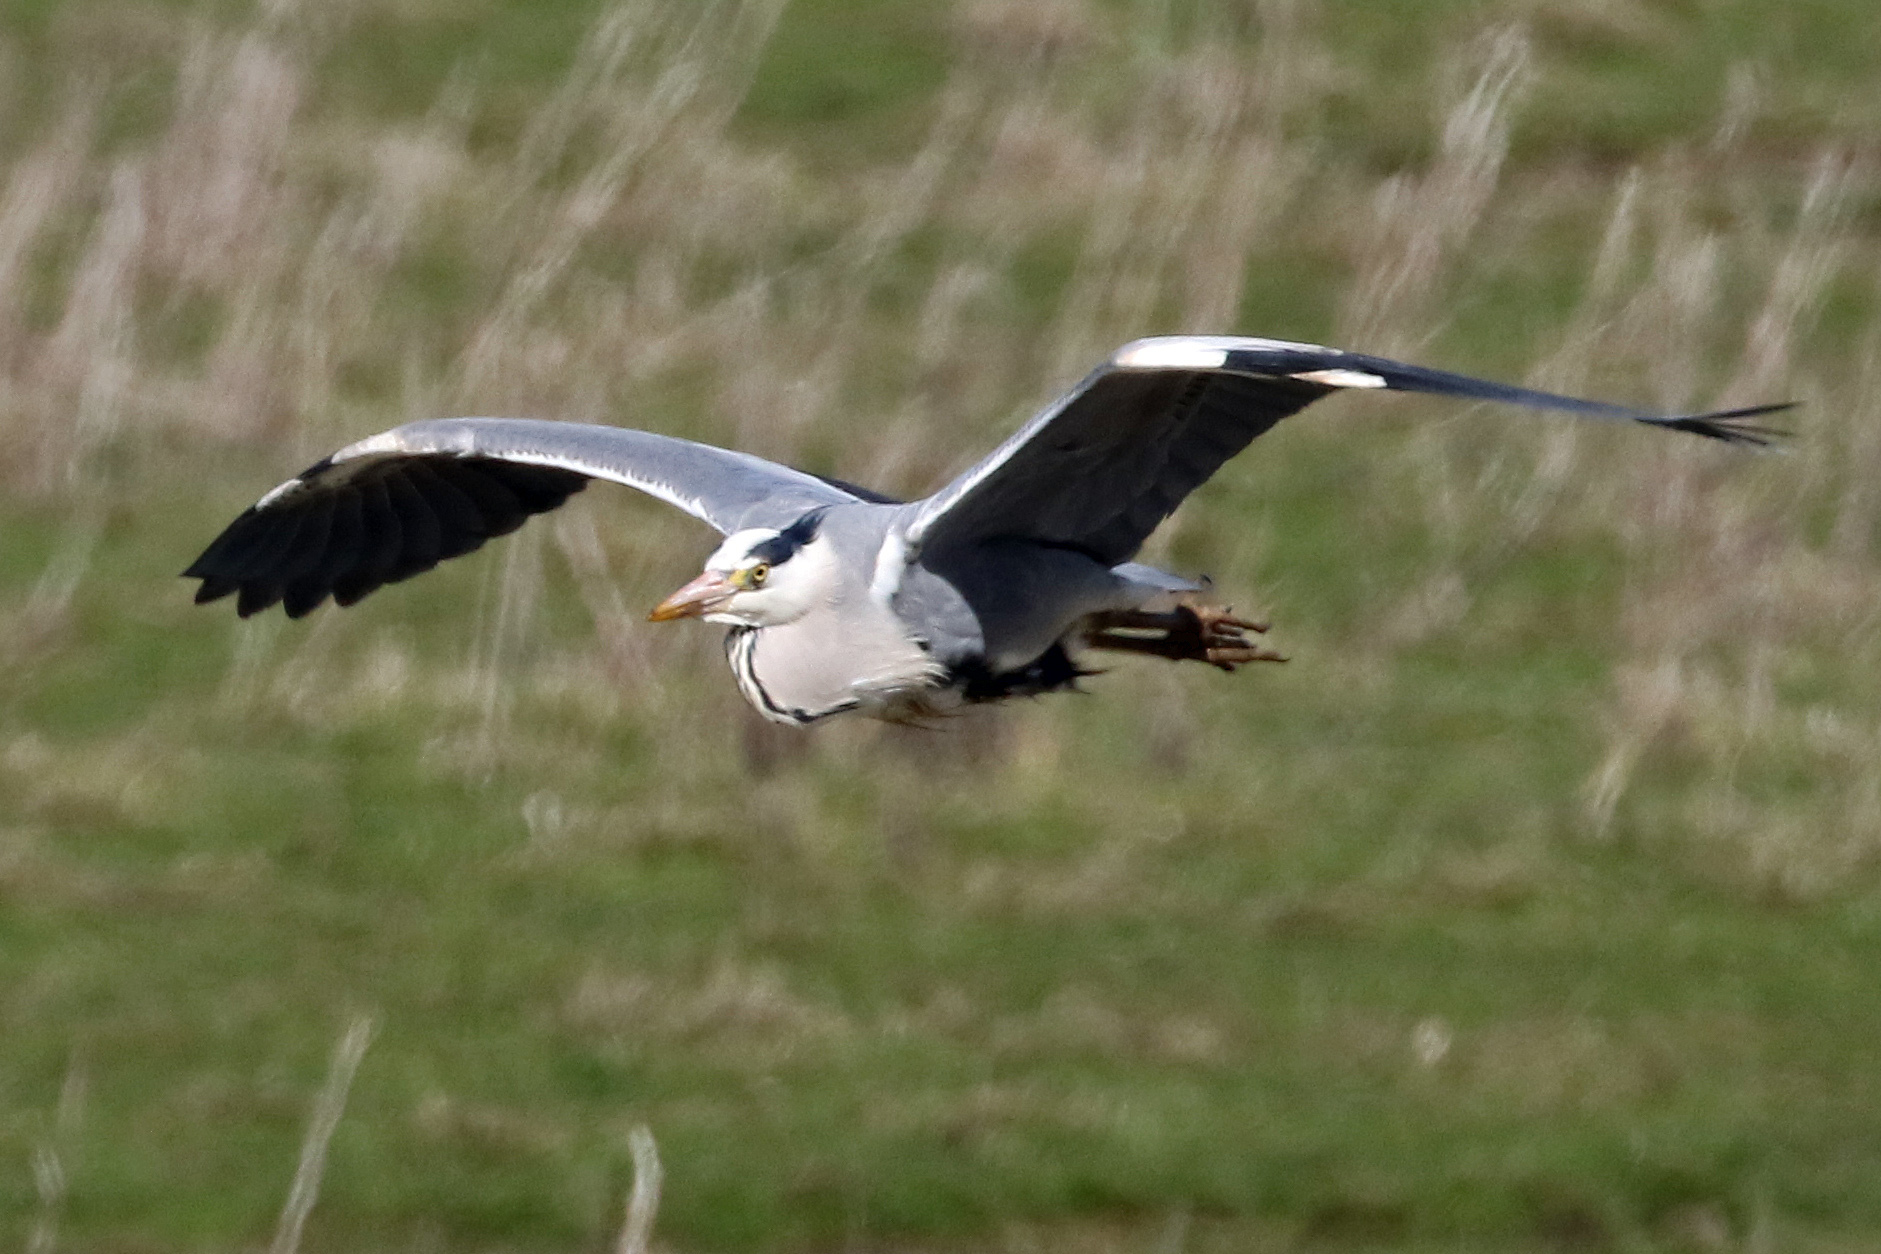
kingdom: Animalia
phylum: Chordata
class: Aves
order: Pelecaniformes
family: Ardeidae
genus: Ardea
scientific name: Ardea cinerea
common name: Grey heron
